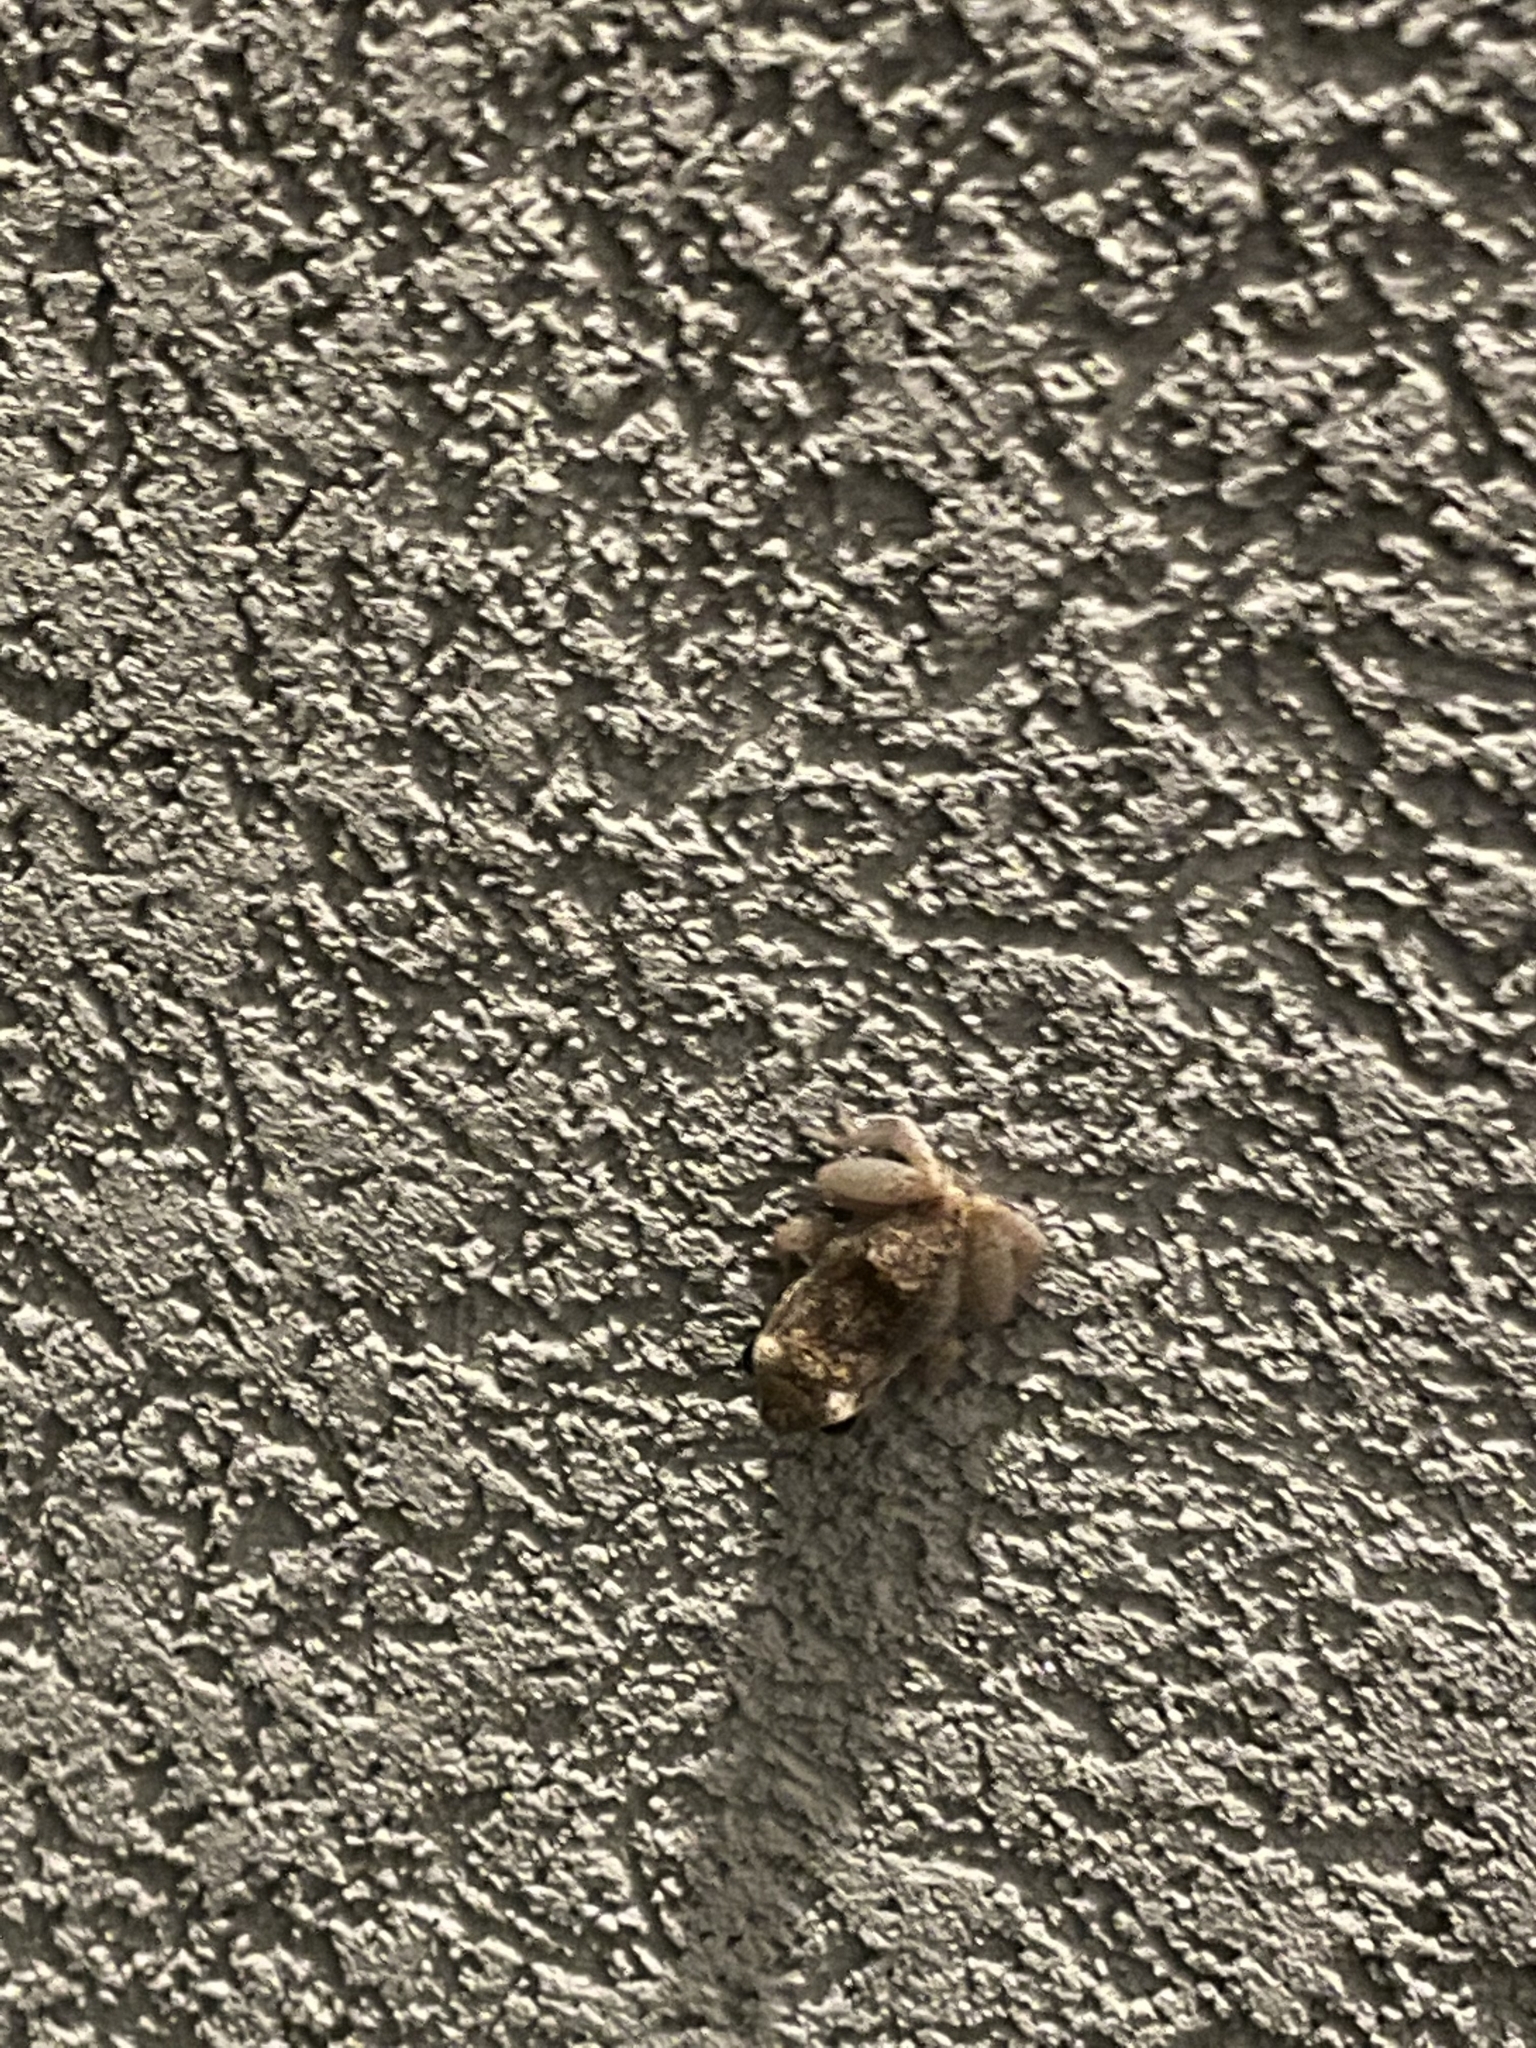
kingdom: Animalia
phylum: Chordata
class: Amphibia
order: Anura
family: Eleutherodactylidae
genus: Eleutherodactylus
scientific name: Eleutherodactylus johnstonei
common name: Johnstone's robber frog
